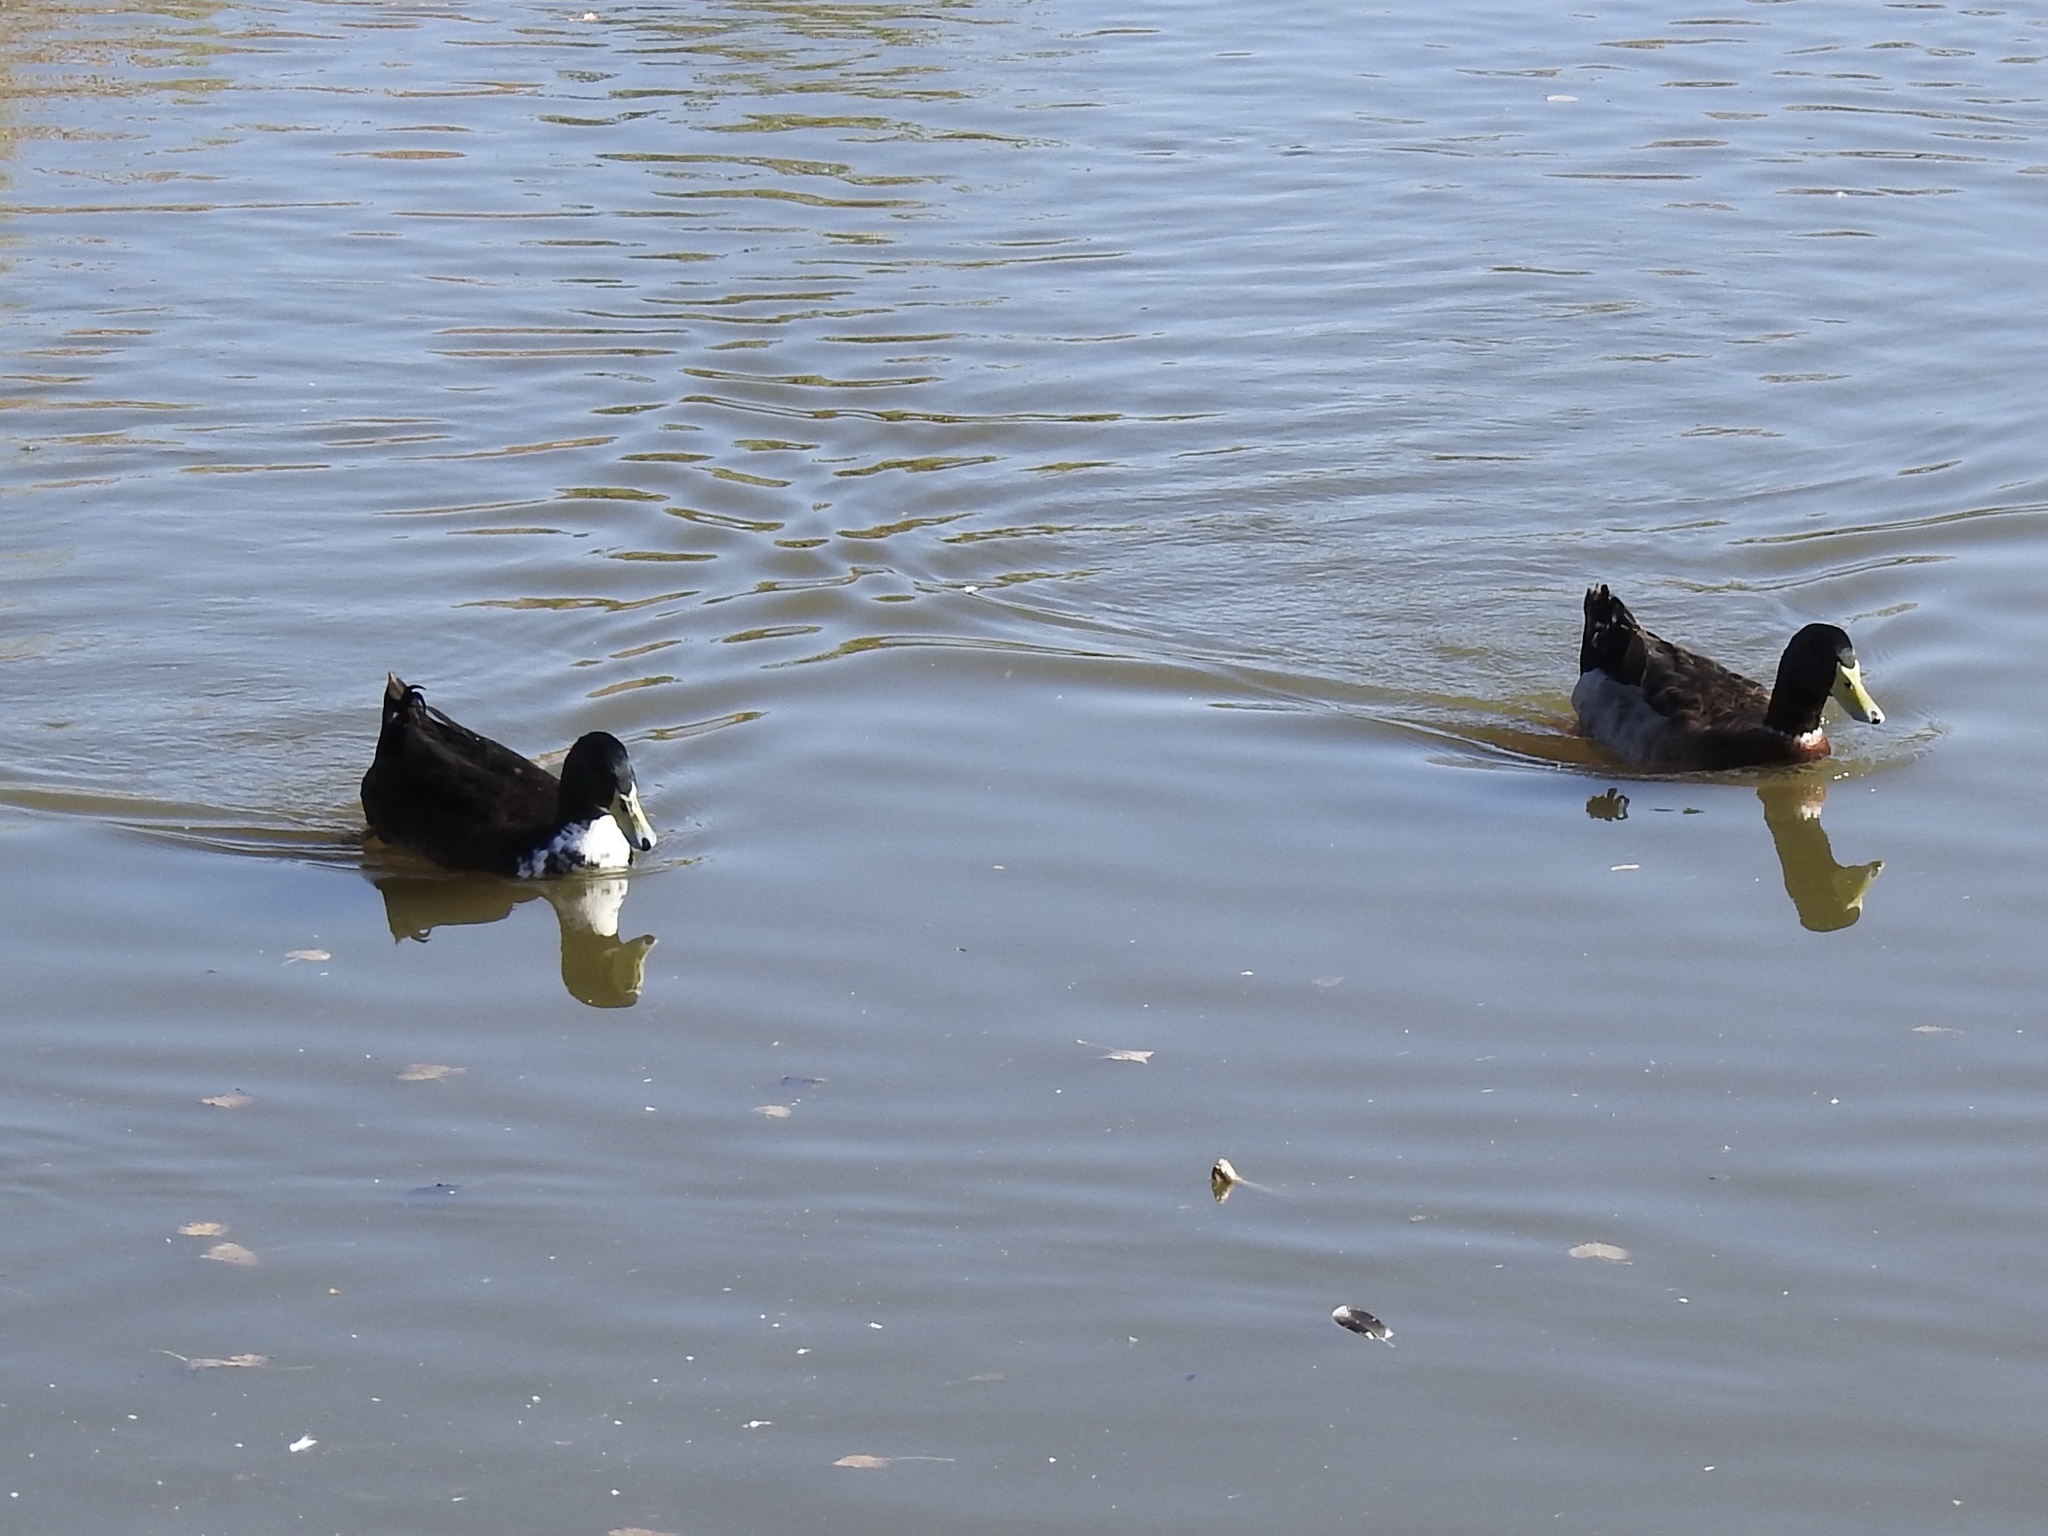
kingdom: Animalia
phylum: Chordata
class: Aves
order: Anseriformes
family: Anatidae
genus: Anas
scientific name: Anas platyrhynchos
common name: Mallard
